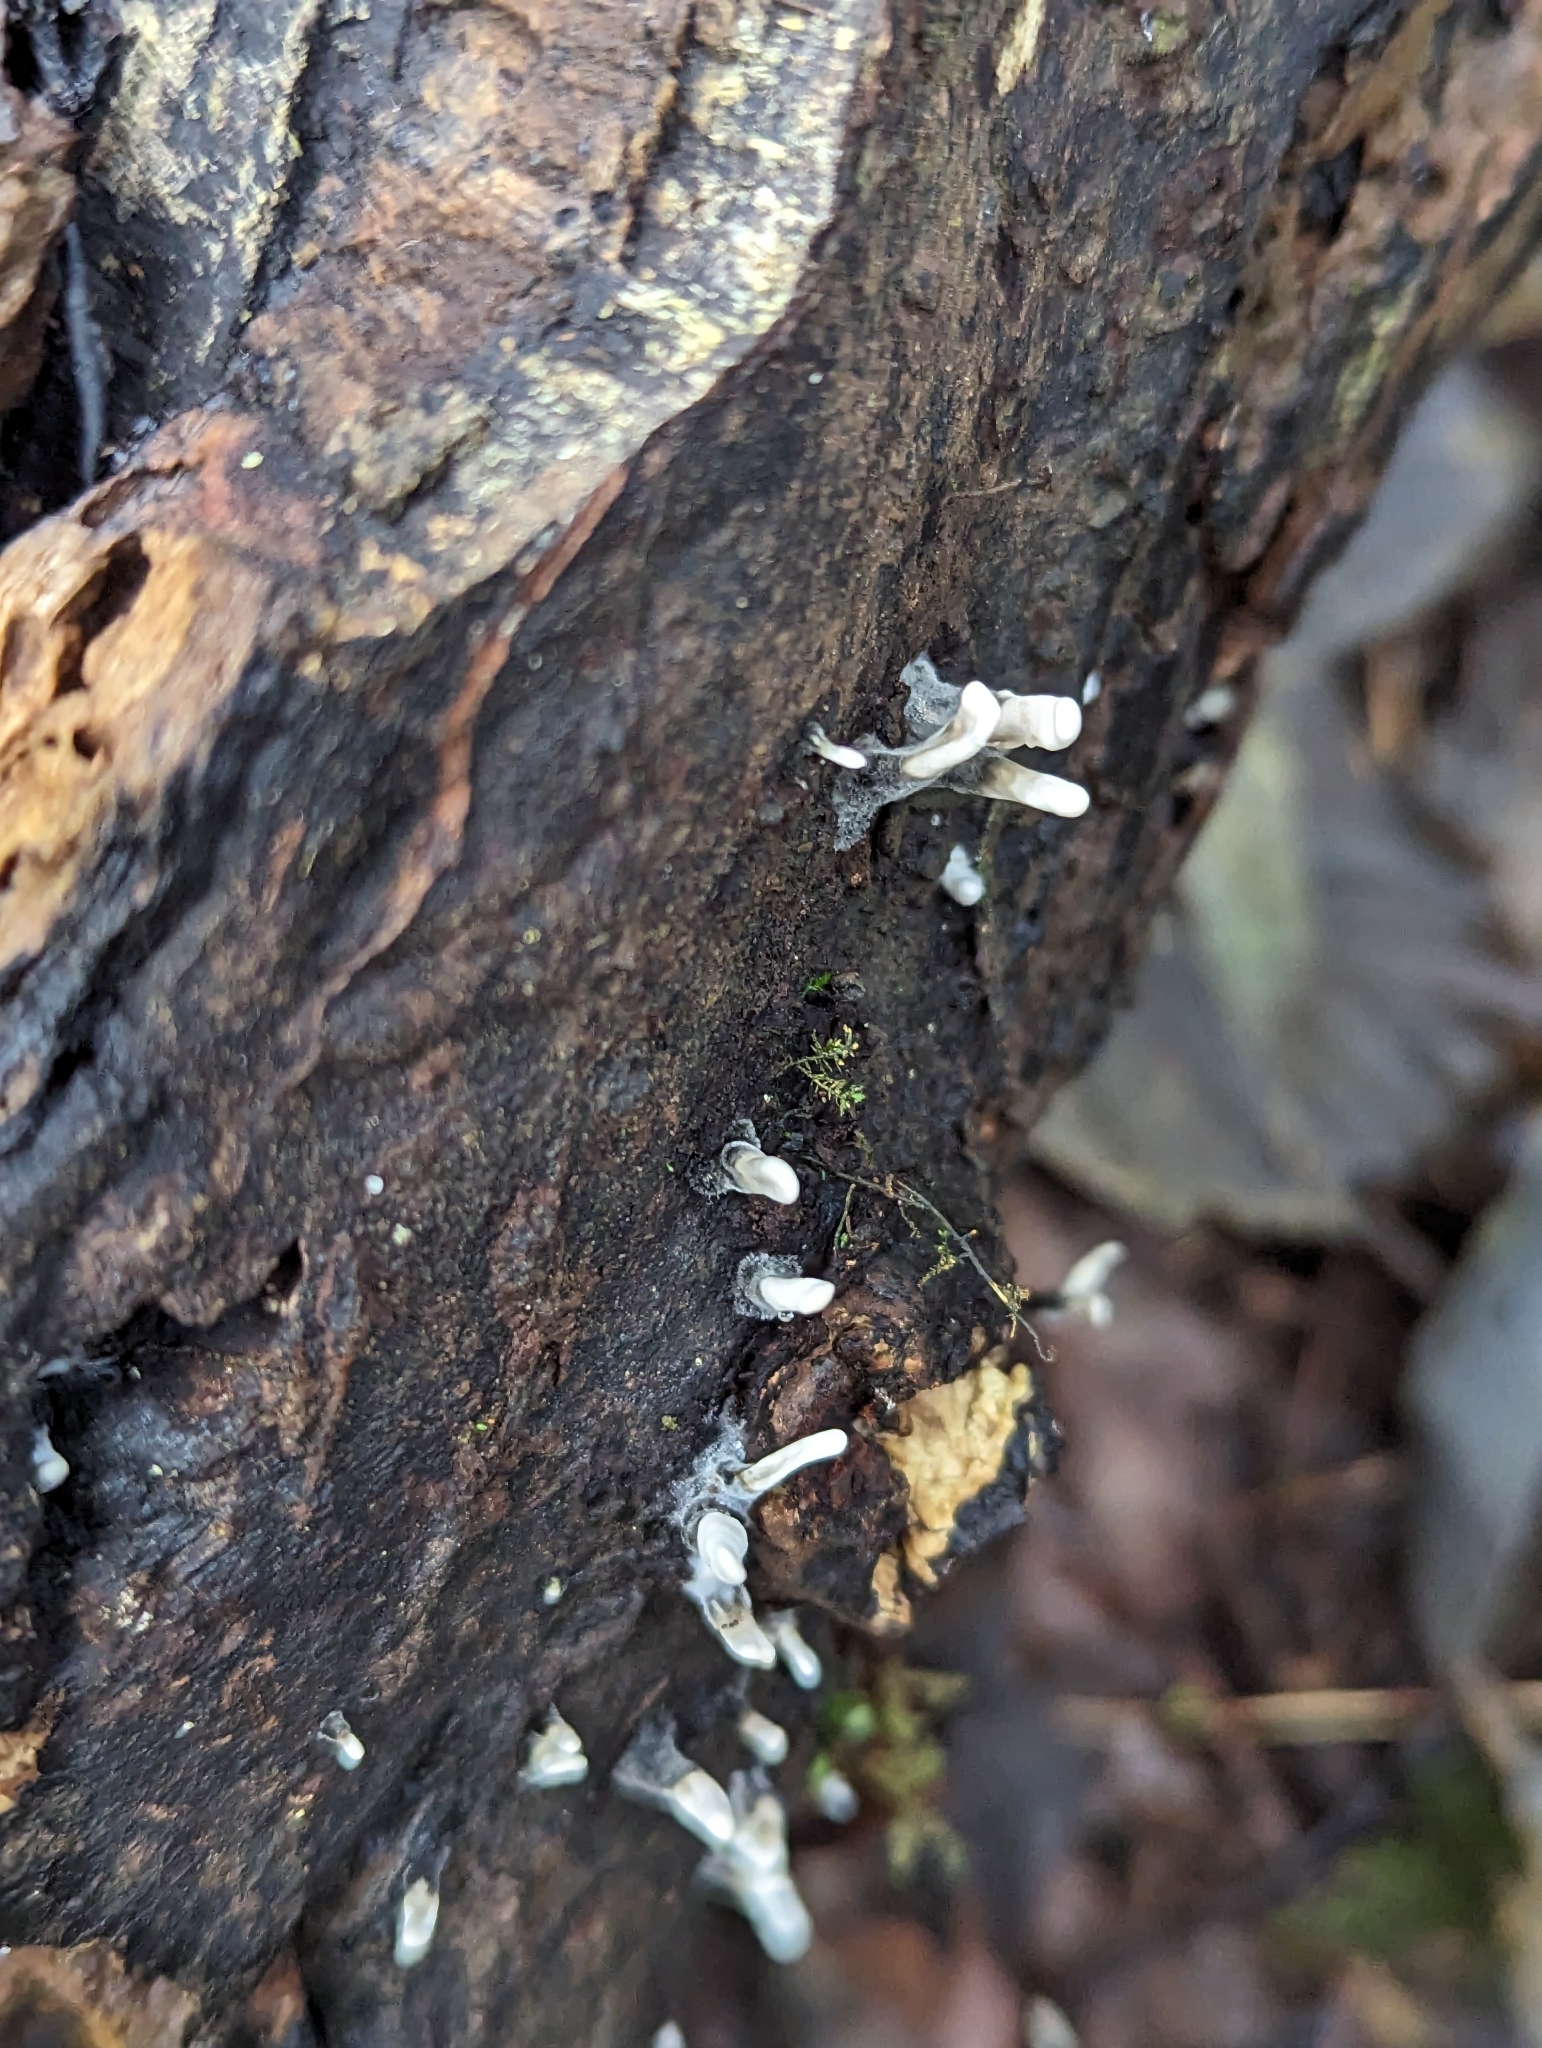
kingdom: Fungi
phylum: Ascomycota
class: Sordariomycetes
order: Xylariales
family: Xylariaceae
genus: Xylaria
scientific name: Xylaria hypoxylon
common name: Candle-snuff fungus
